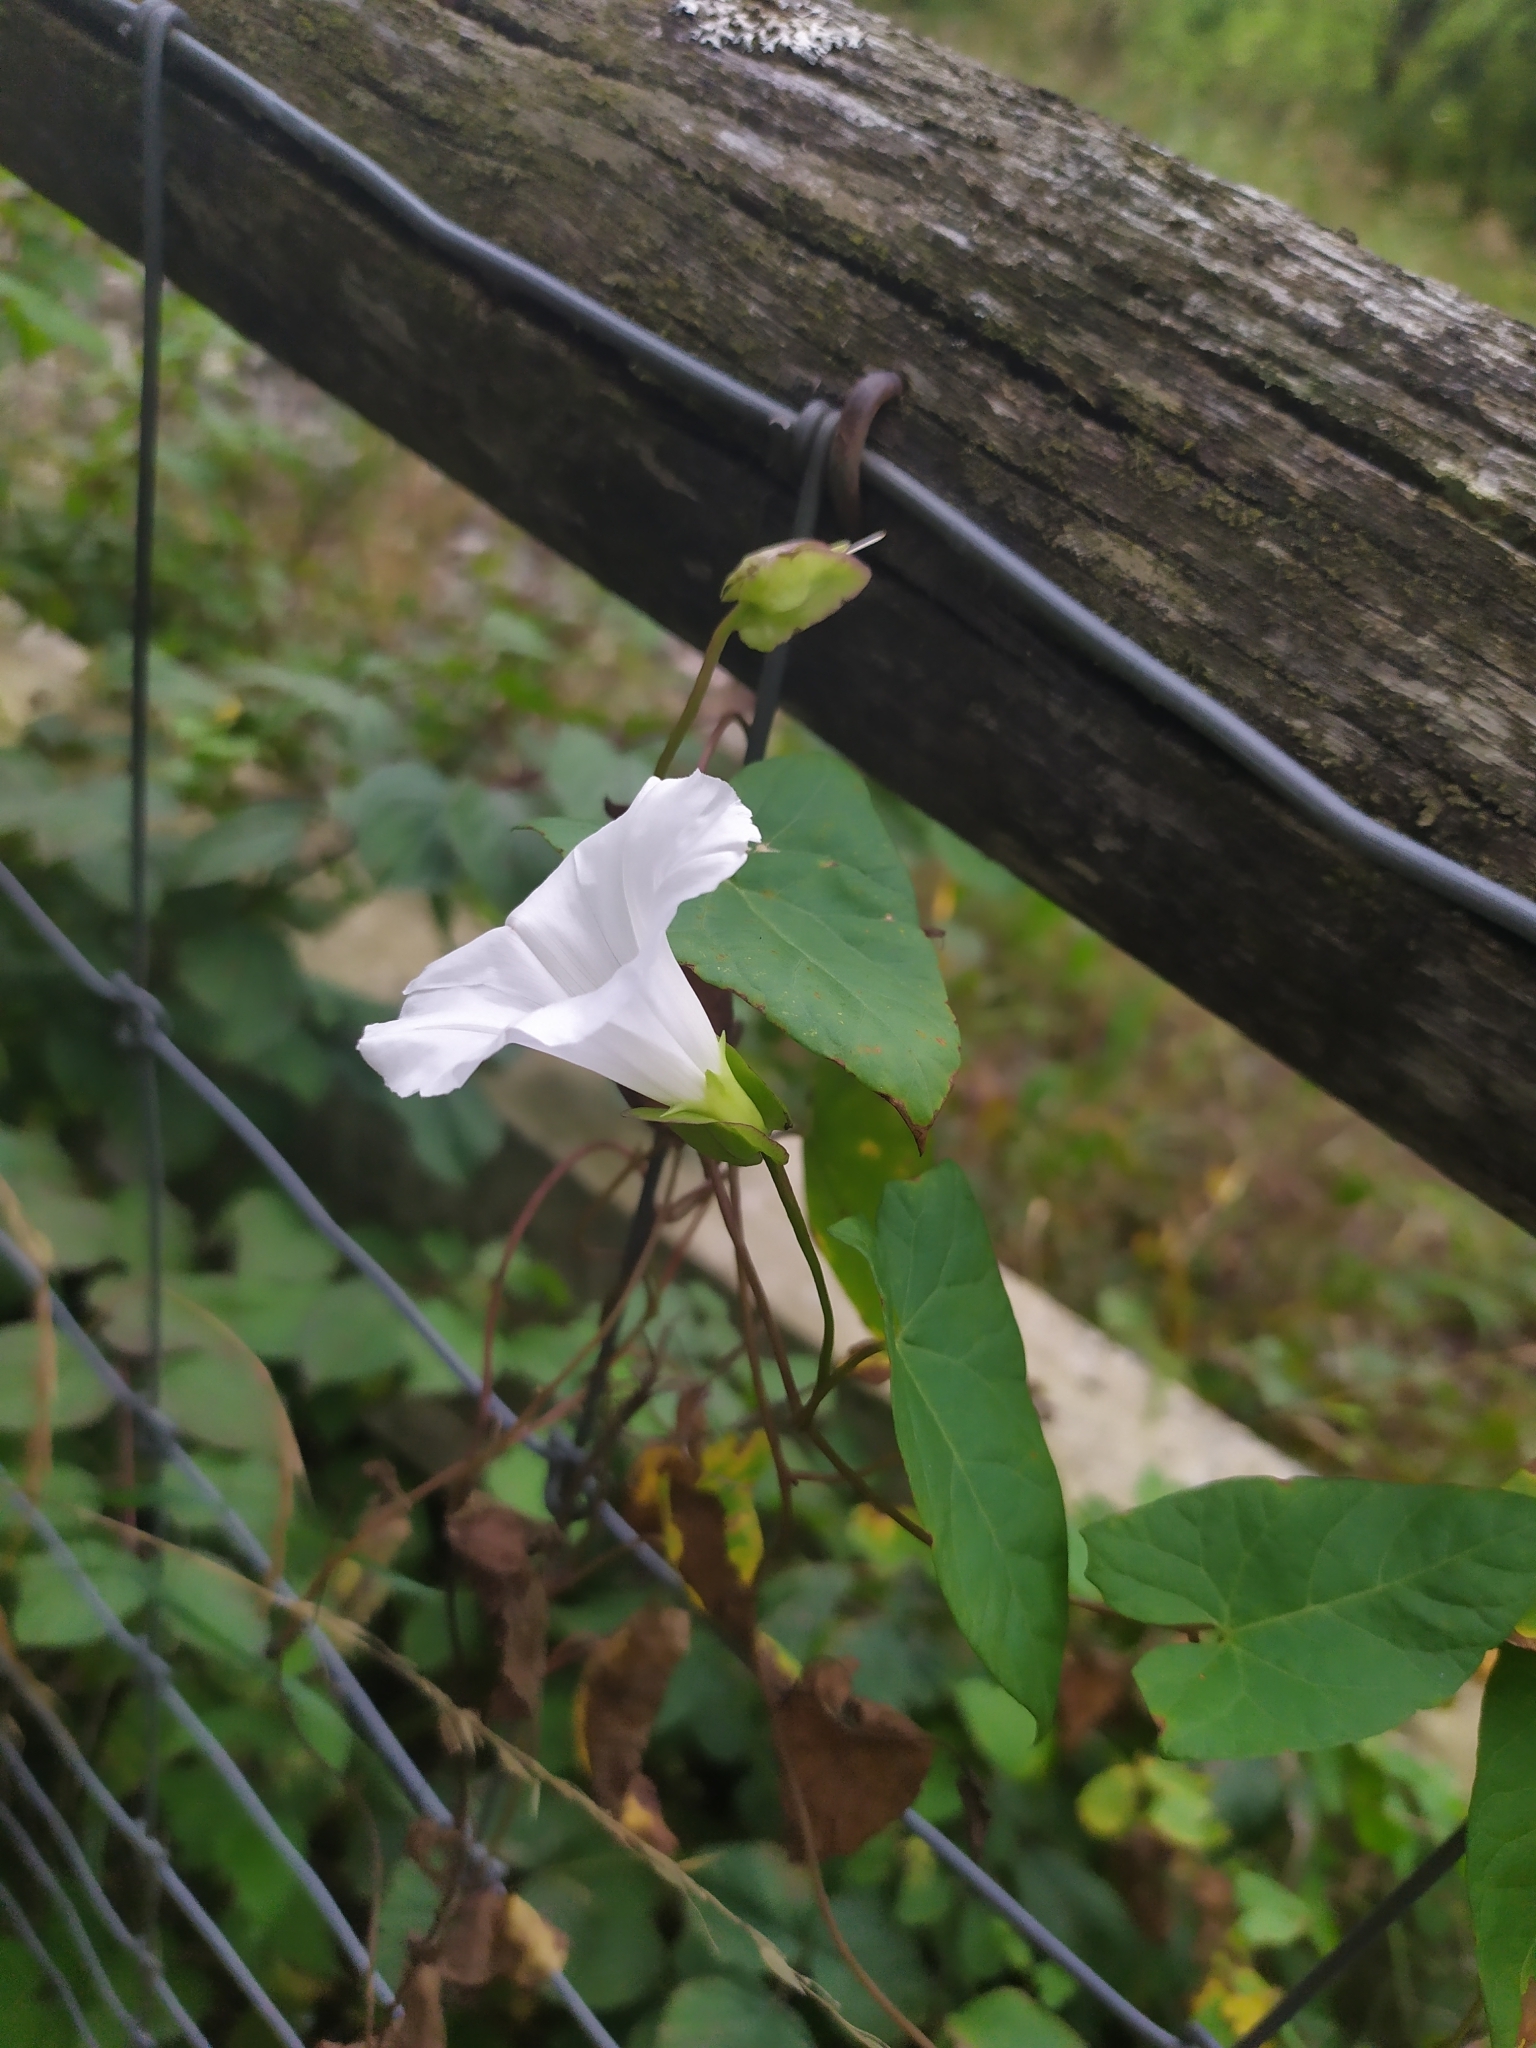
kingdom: Plantae
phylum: Tracheophyta
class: Magnoliopsida
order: Solanales
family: Convolvulaceae
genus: Calystegia
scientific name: Calystegia sepium
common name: Hedge bindweed
